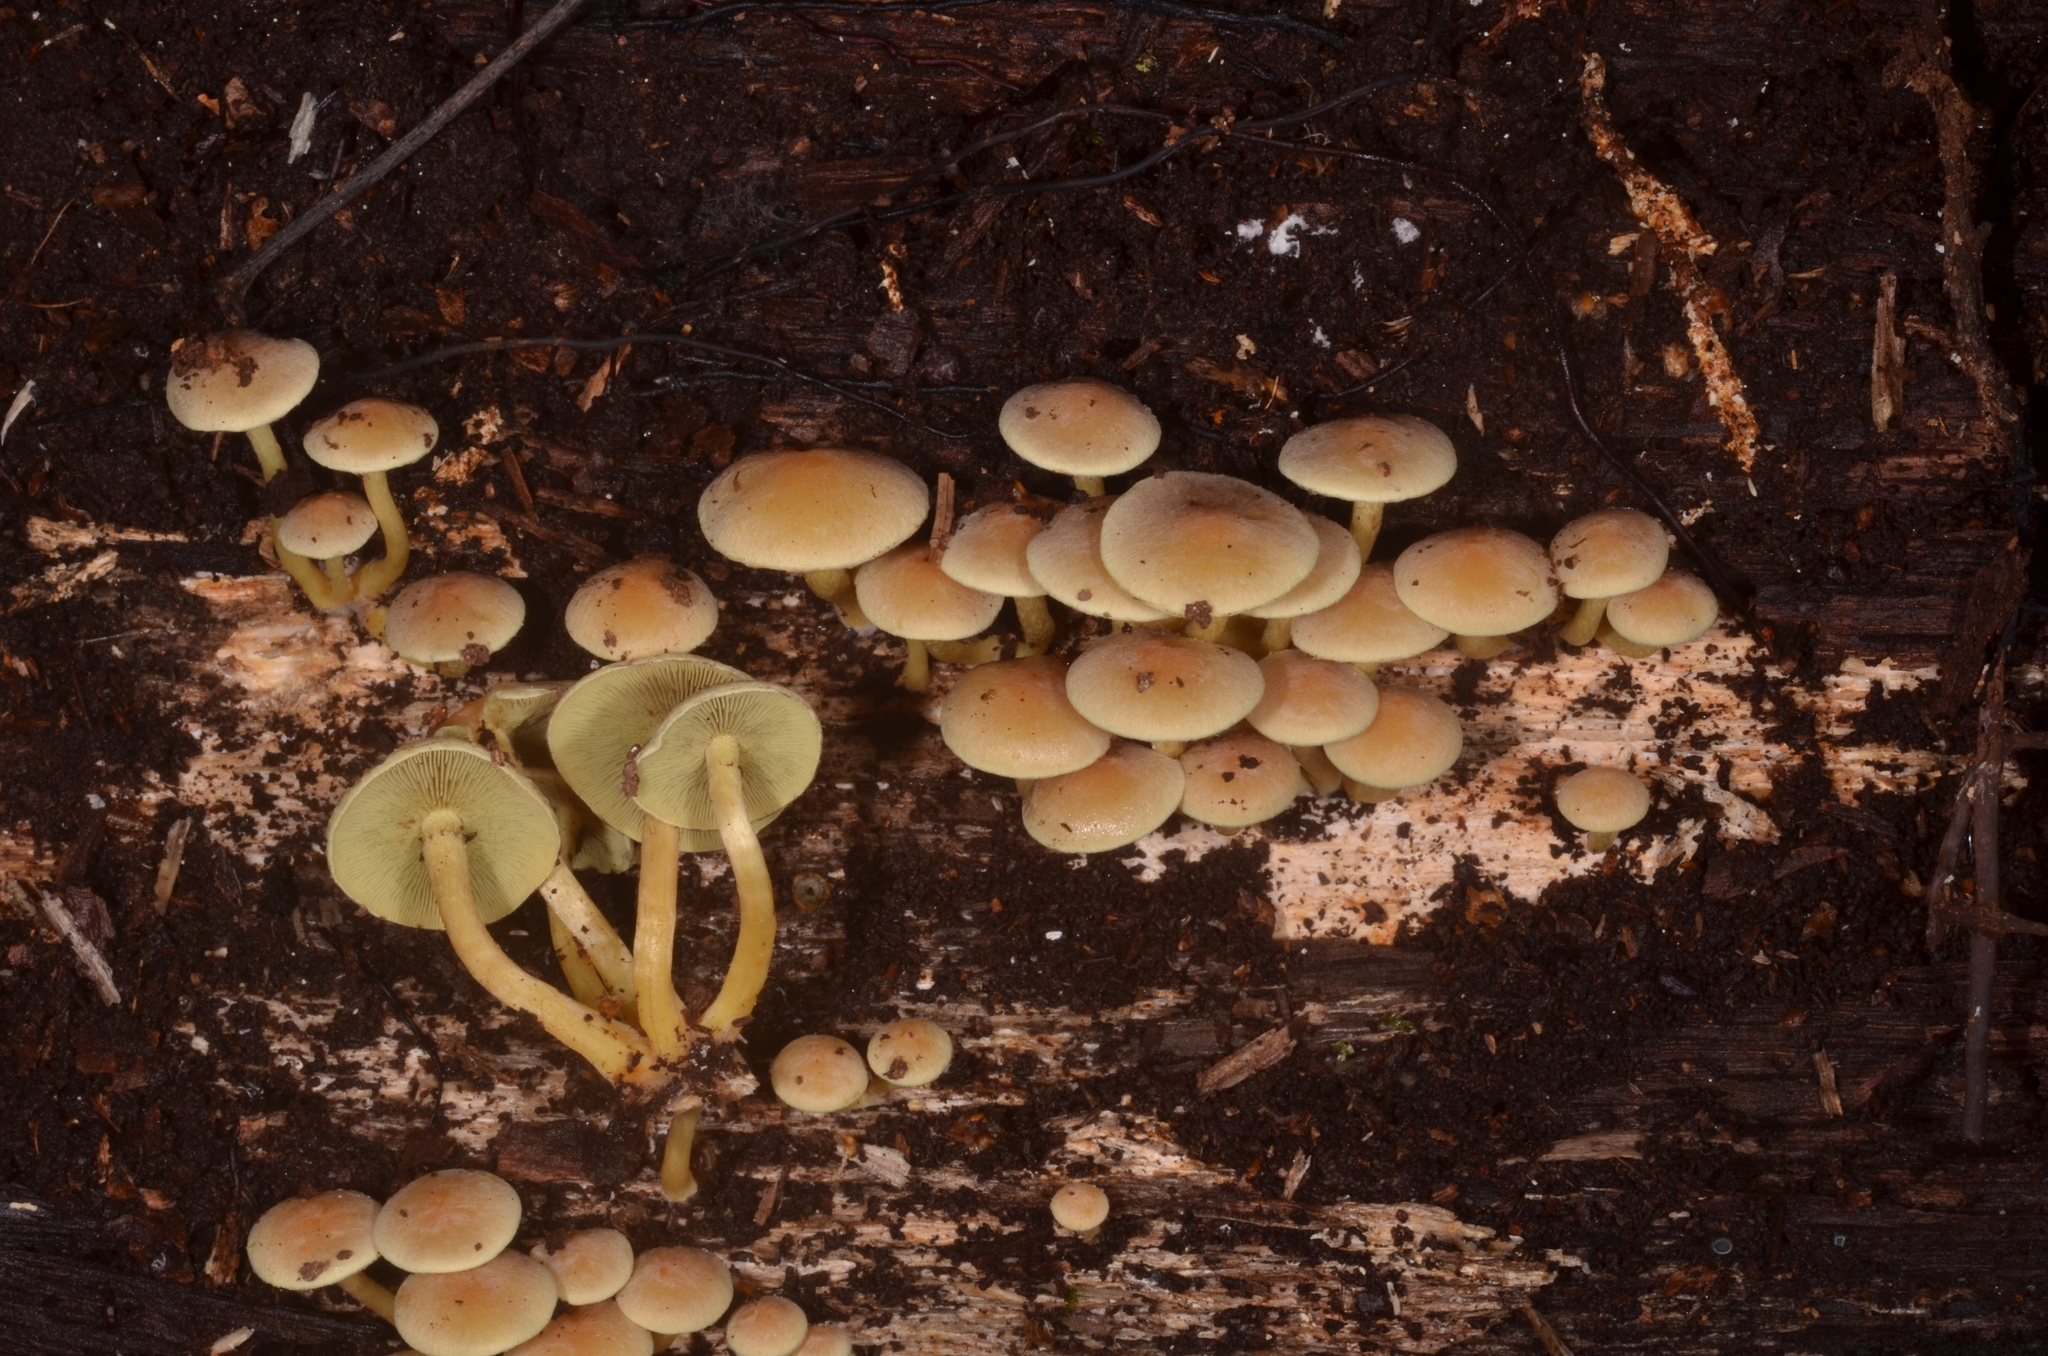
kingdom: Fungi
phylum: Basidiomycota
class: Agaricomycetes
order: Agaricales
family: Strophariaceae
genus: Hypholoma
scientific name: Hypholoma fasciculare
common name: Sulphur tuft
